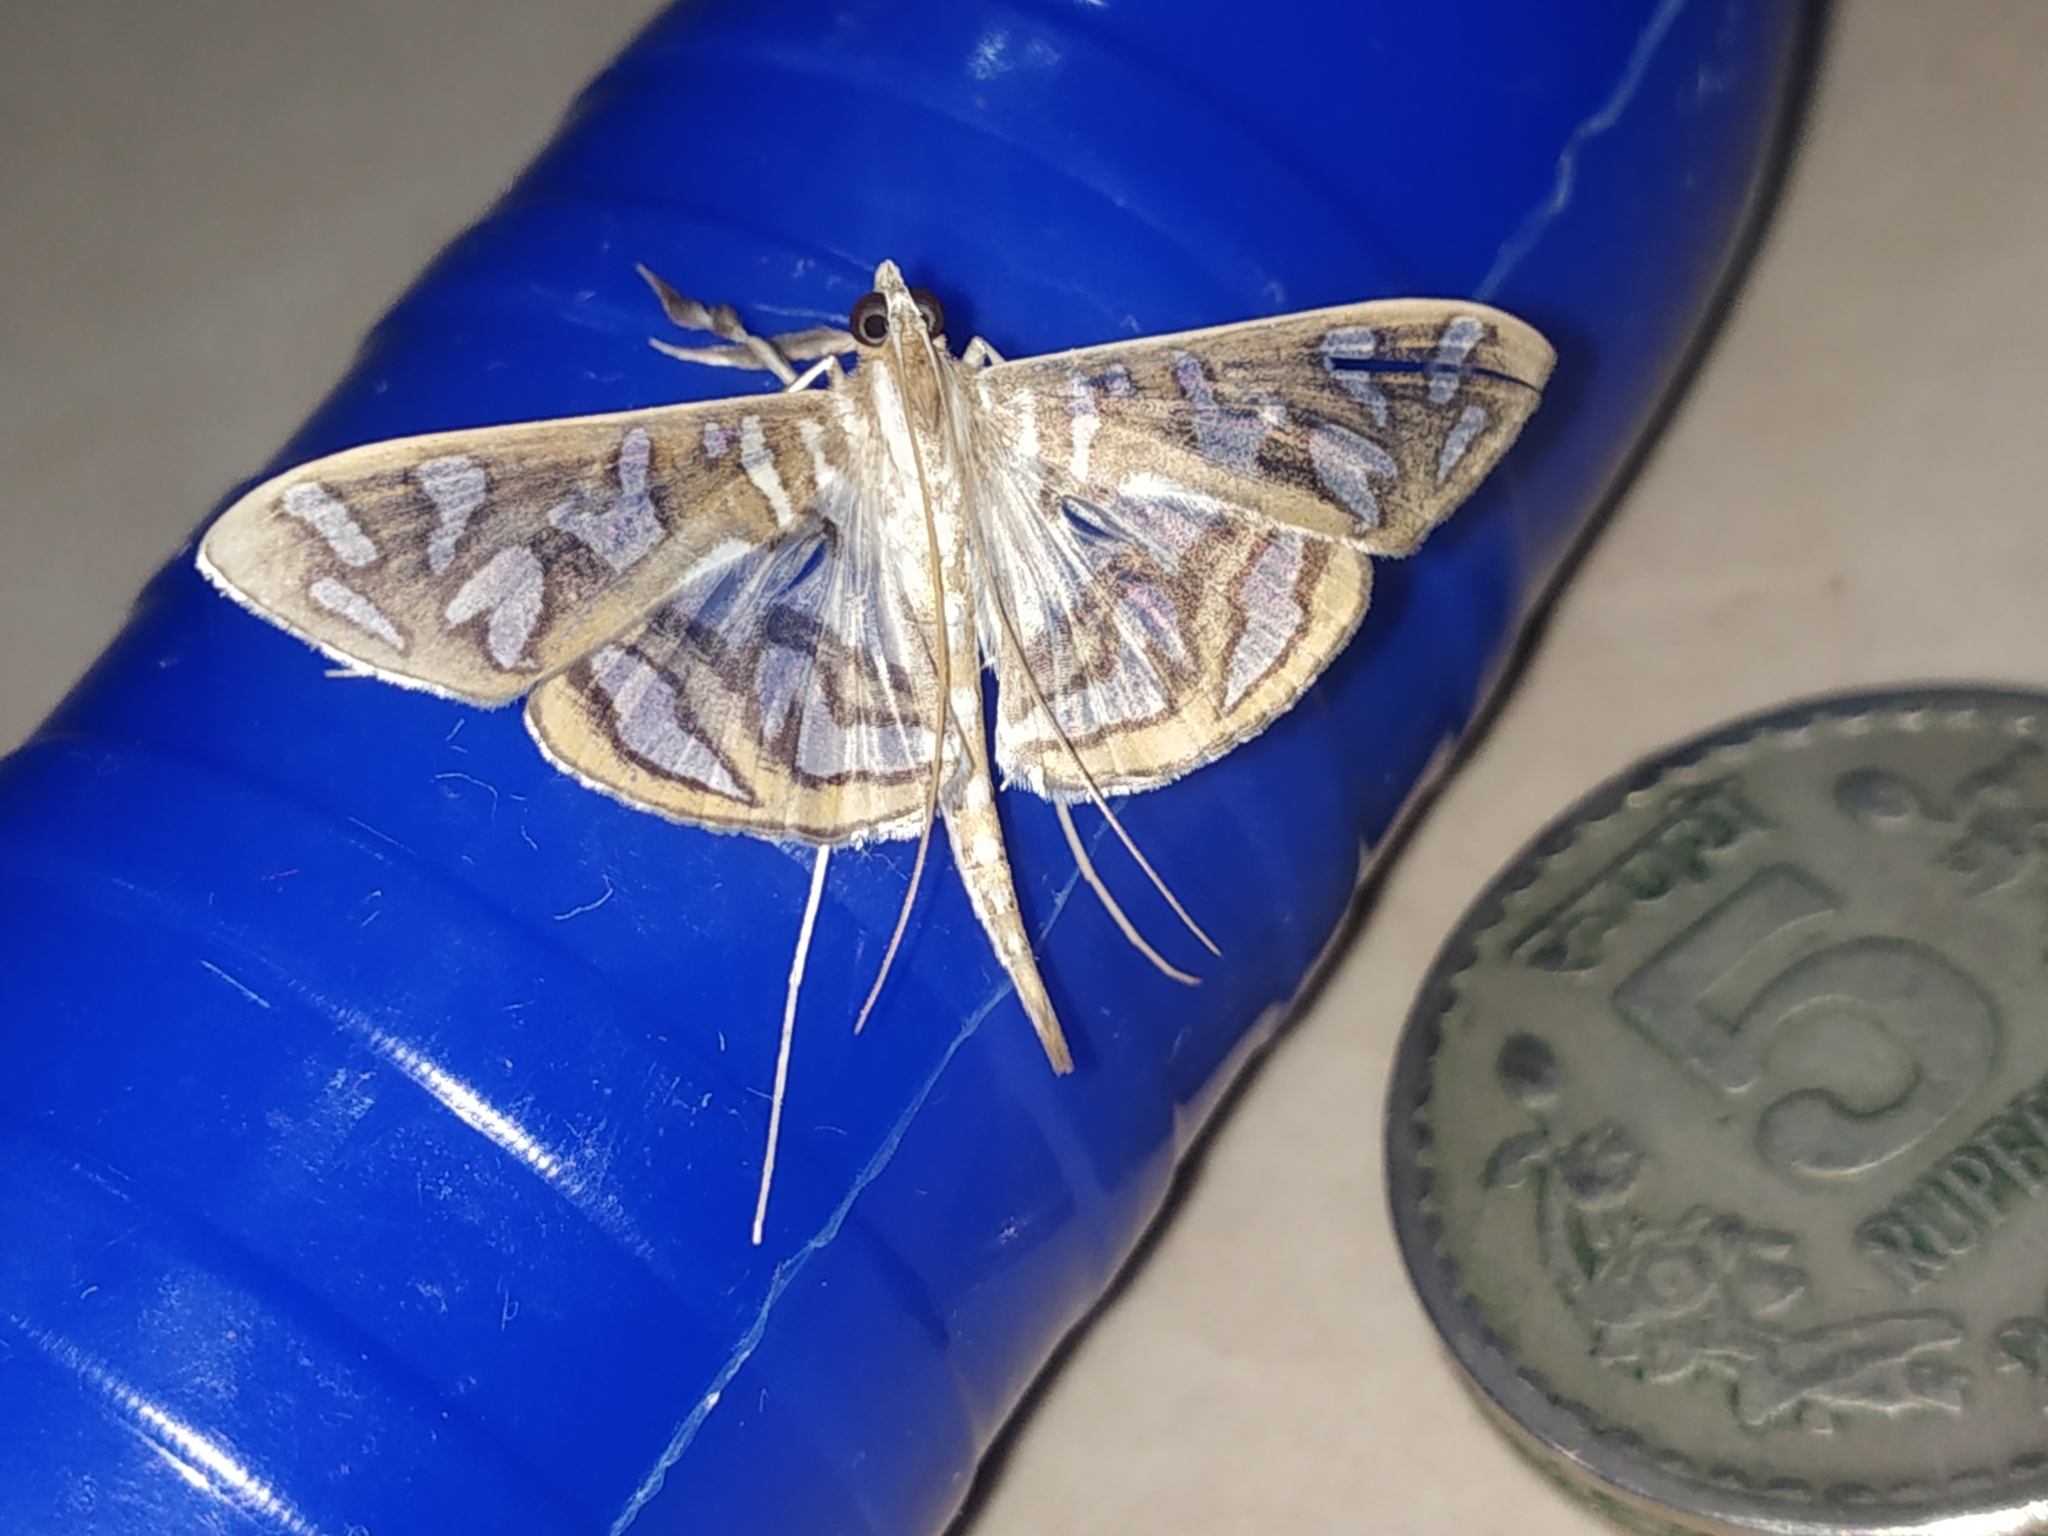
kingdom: Animalia
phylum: Arthropoda
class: Insecta
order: Lepidoptera
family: Crambidae
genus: Nausinoe
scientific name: Nausinoe perspectata
